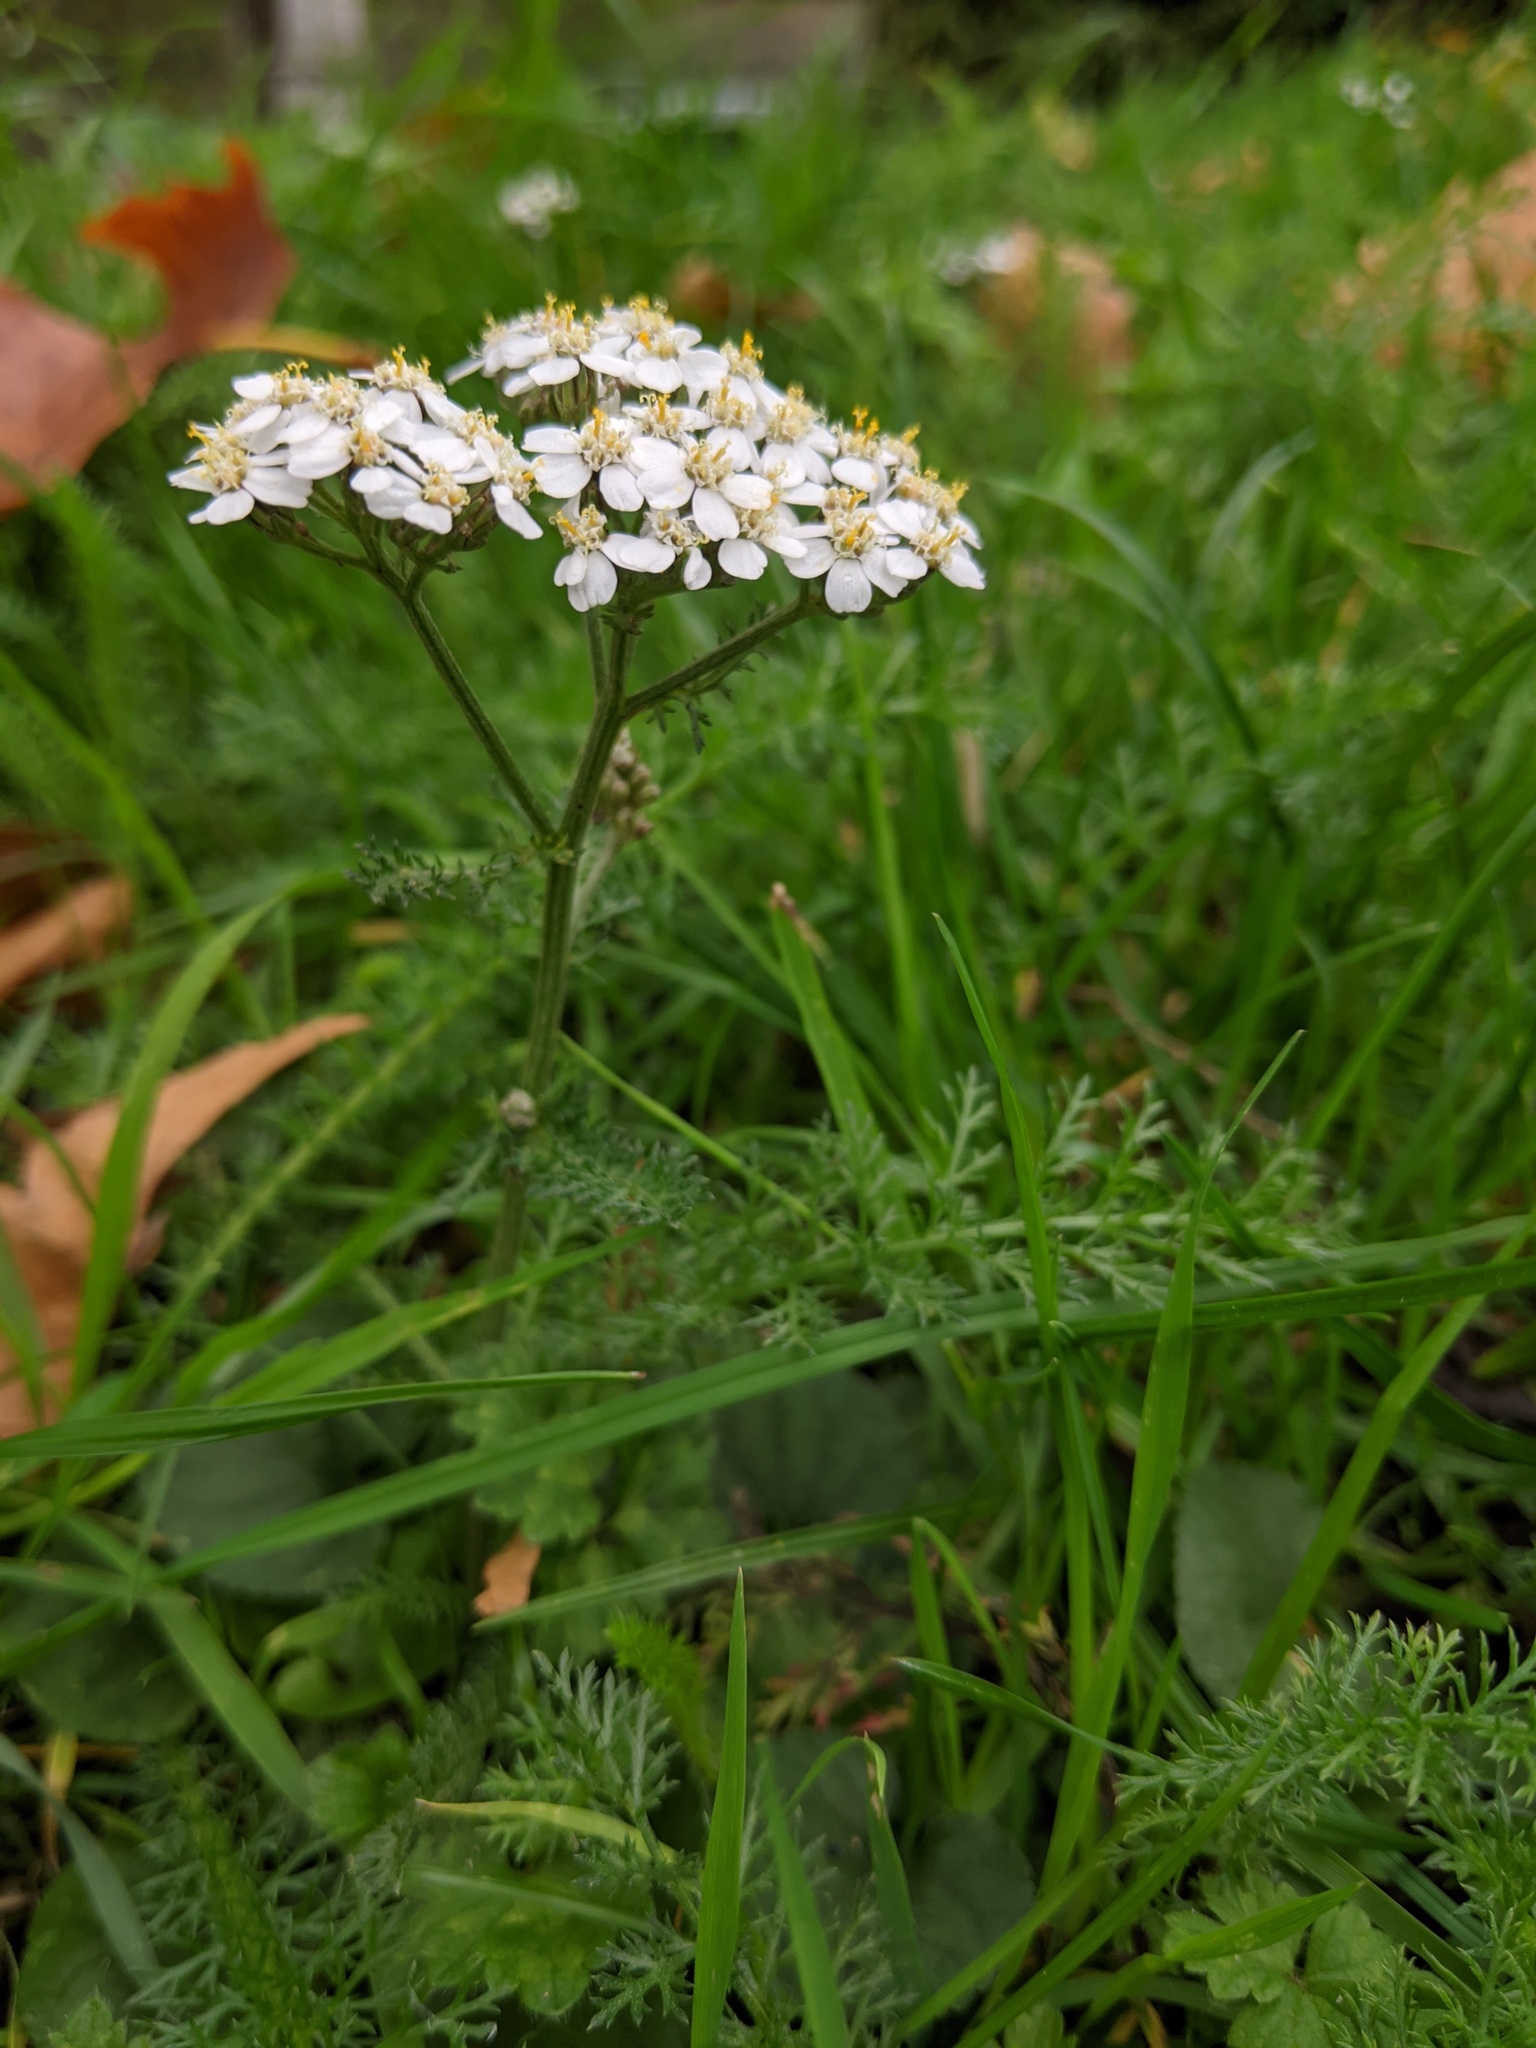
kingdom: Plantae
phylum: Tracheophyta
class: Magnoliopsida
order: Asterales
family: Asteraceae
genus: Achillea
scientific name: Achillea millefolium
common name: Yarrow
